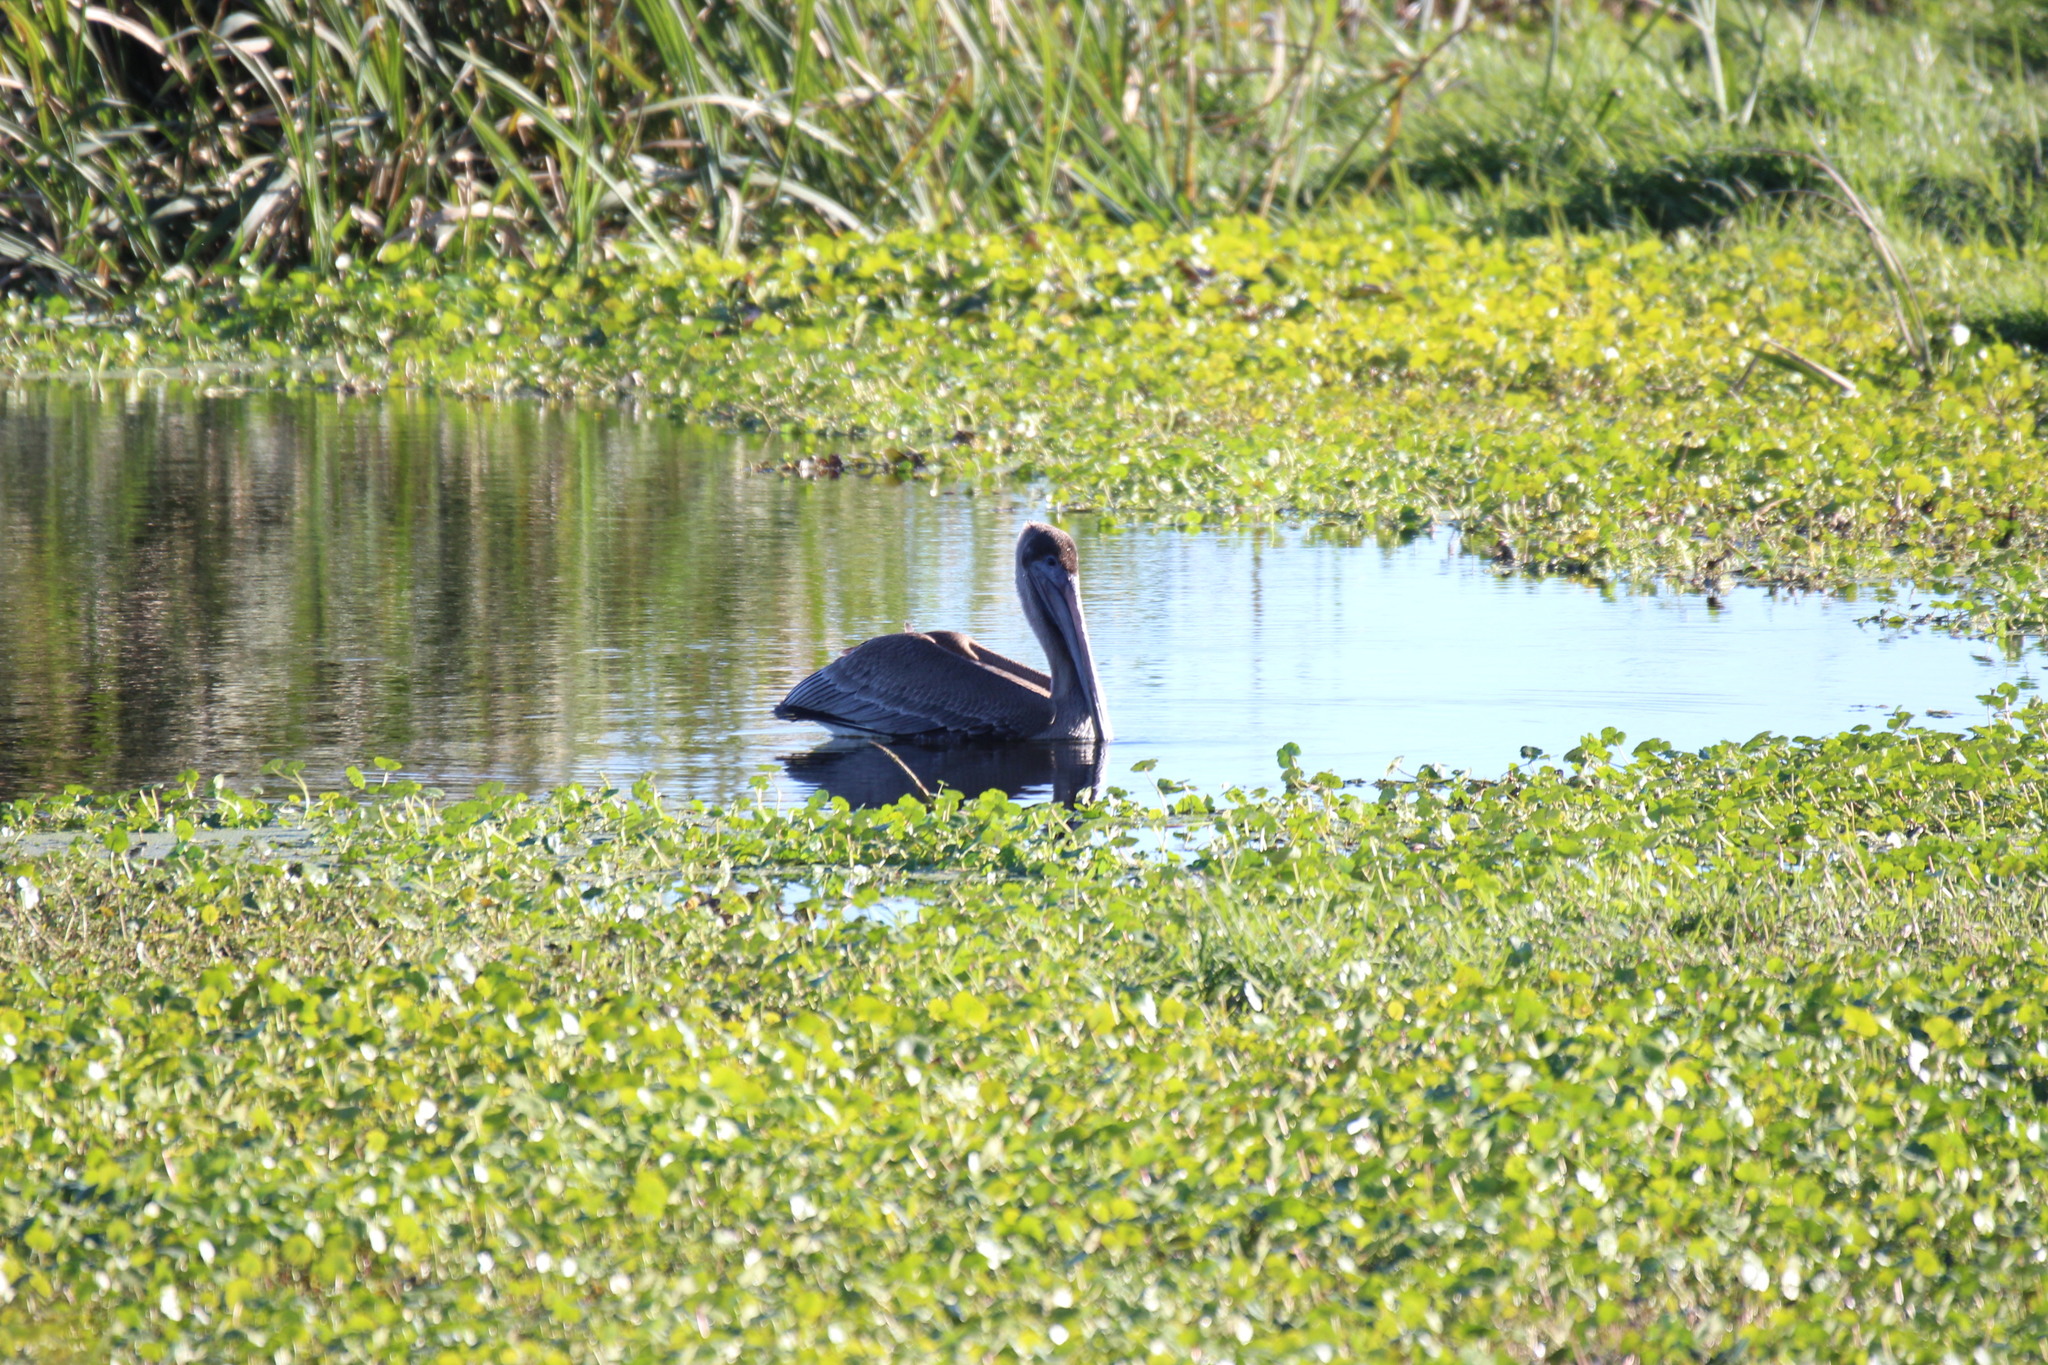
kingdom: Animalia
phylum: Chordata
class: Aves
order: Pelecaniformes
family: Pelecanidae
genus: Pelecanus
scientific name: Pelecanus occidentalis
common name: Brown pelican
